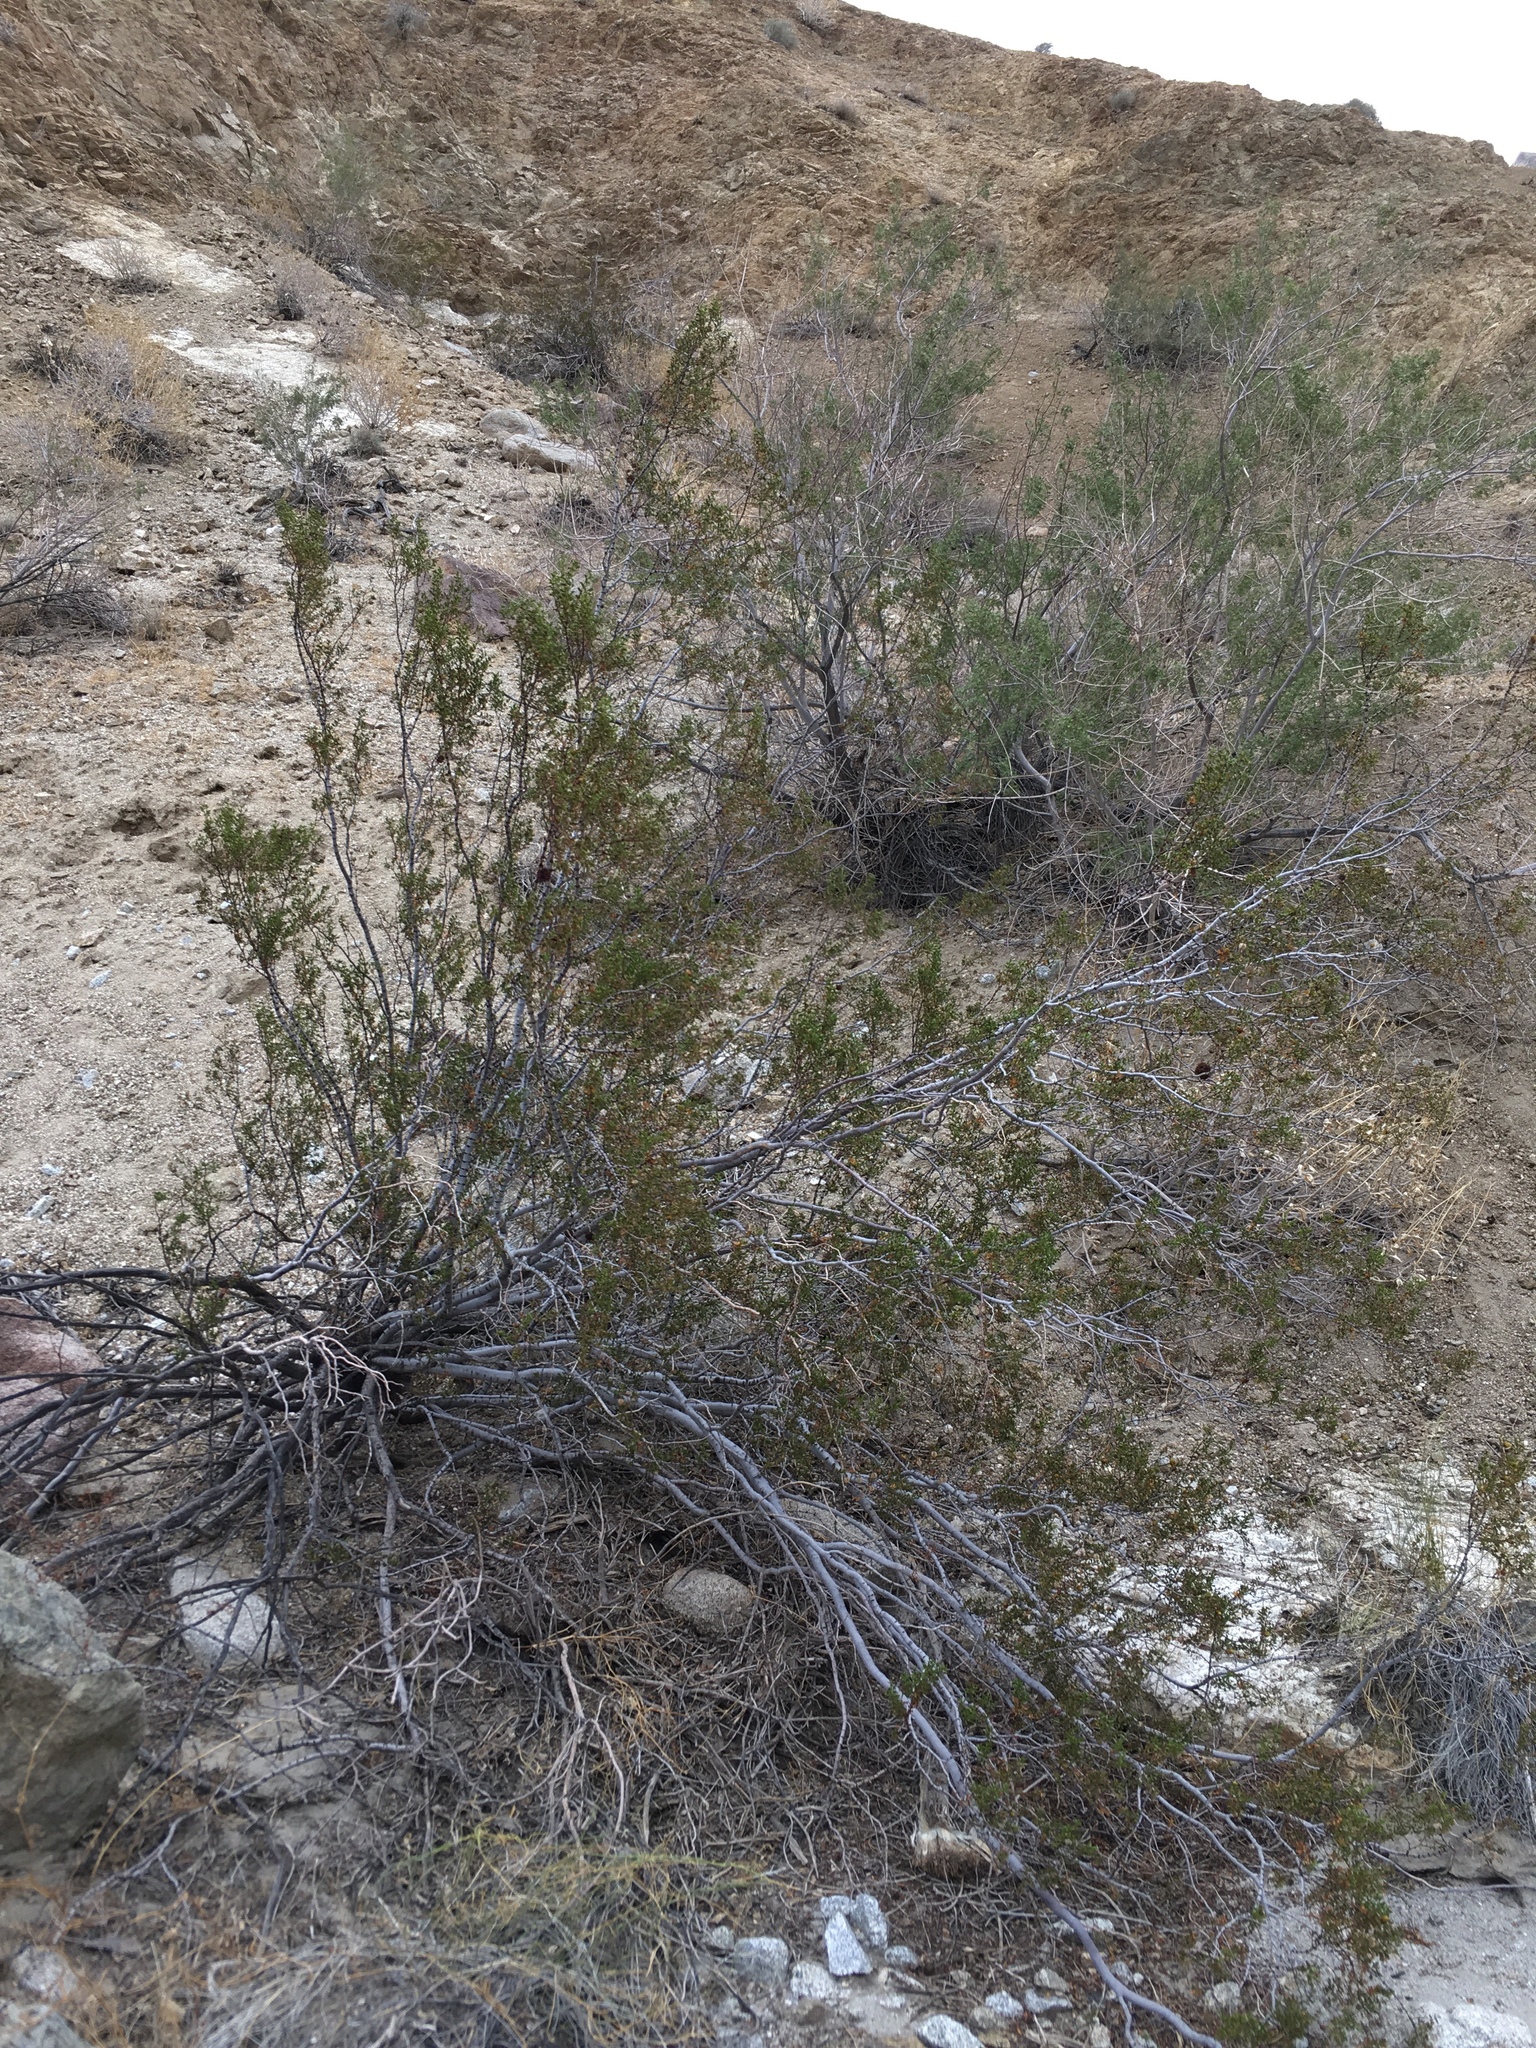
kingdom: Animalia
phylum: Arthropoda
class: Insecta
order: Diptera
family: Cecidomyiidae
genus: Asphondylia
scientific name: Asphondylia auripila
